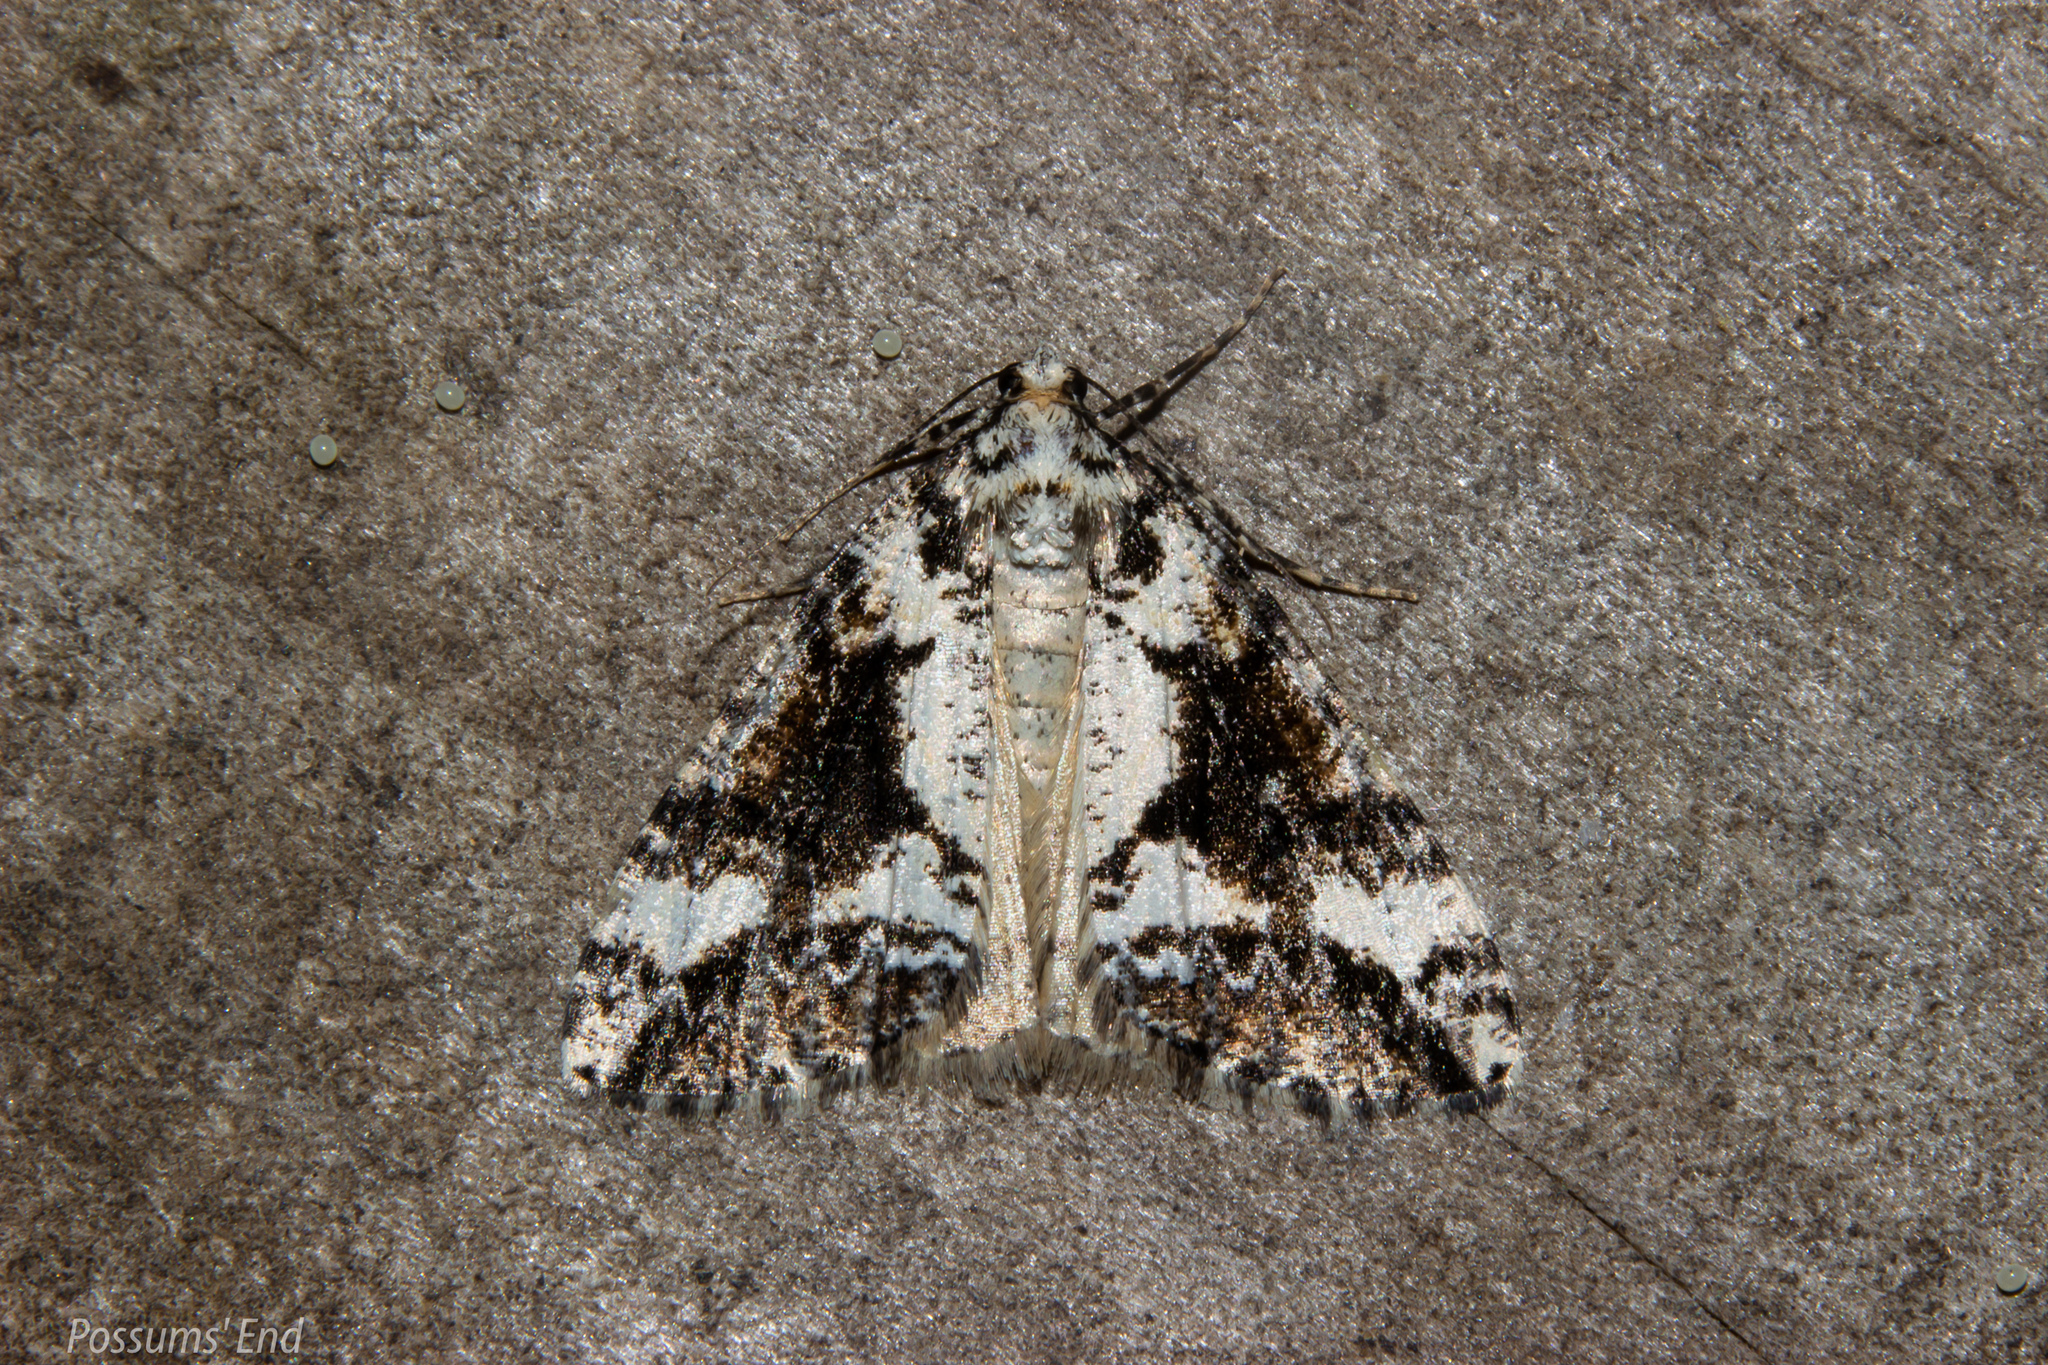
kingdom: Animalia
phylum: Arthropoda
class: Insecta
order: Lepidoptera
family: Geometridae
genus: Pseudocoremia
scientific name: Pseudocoremia leucelaea
